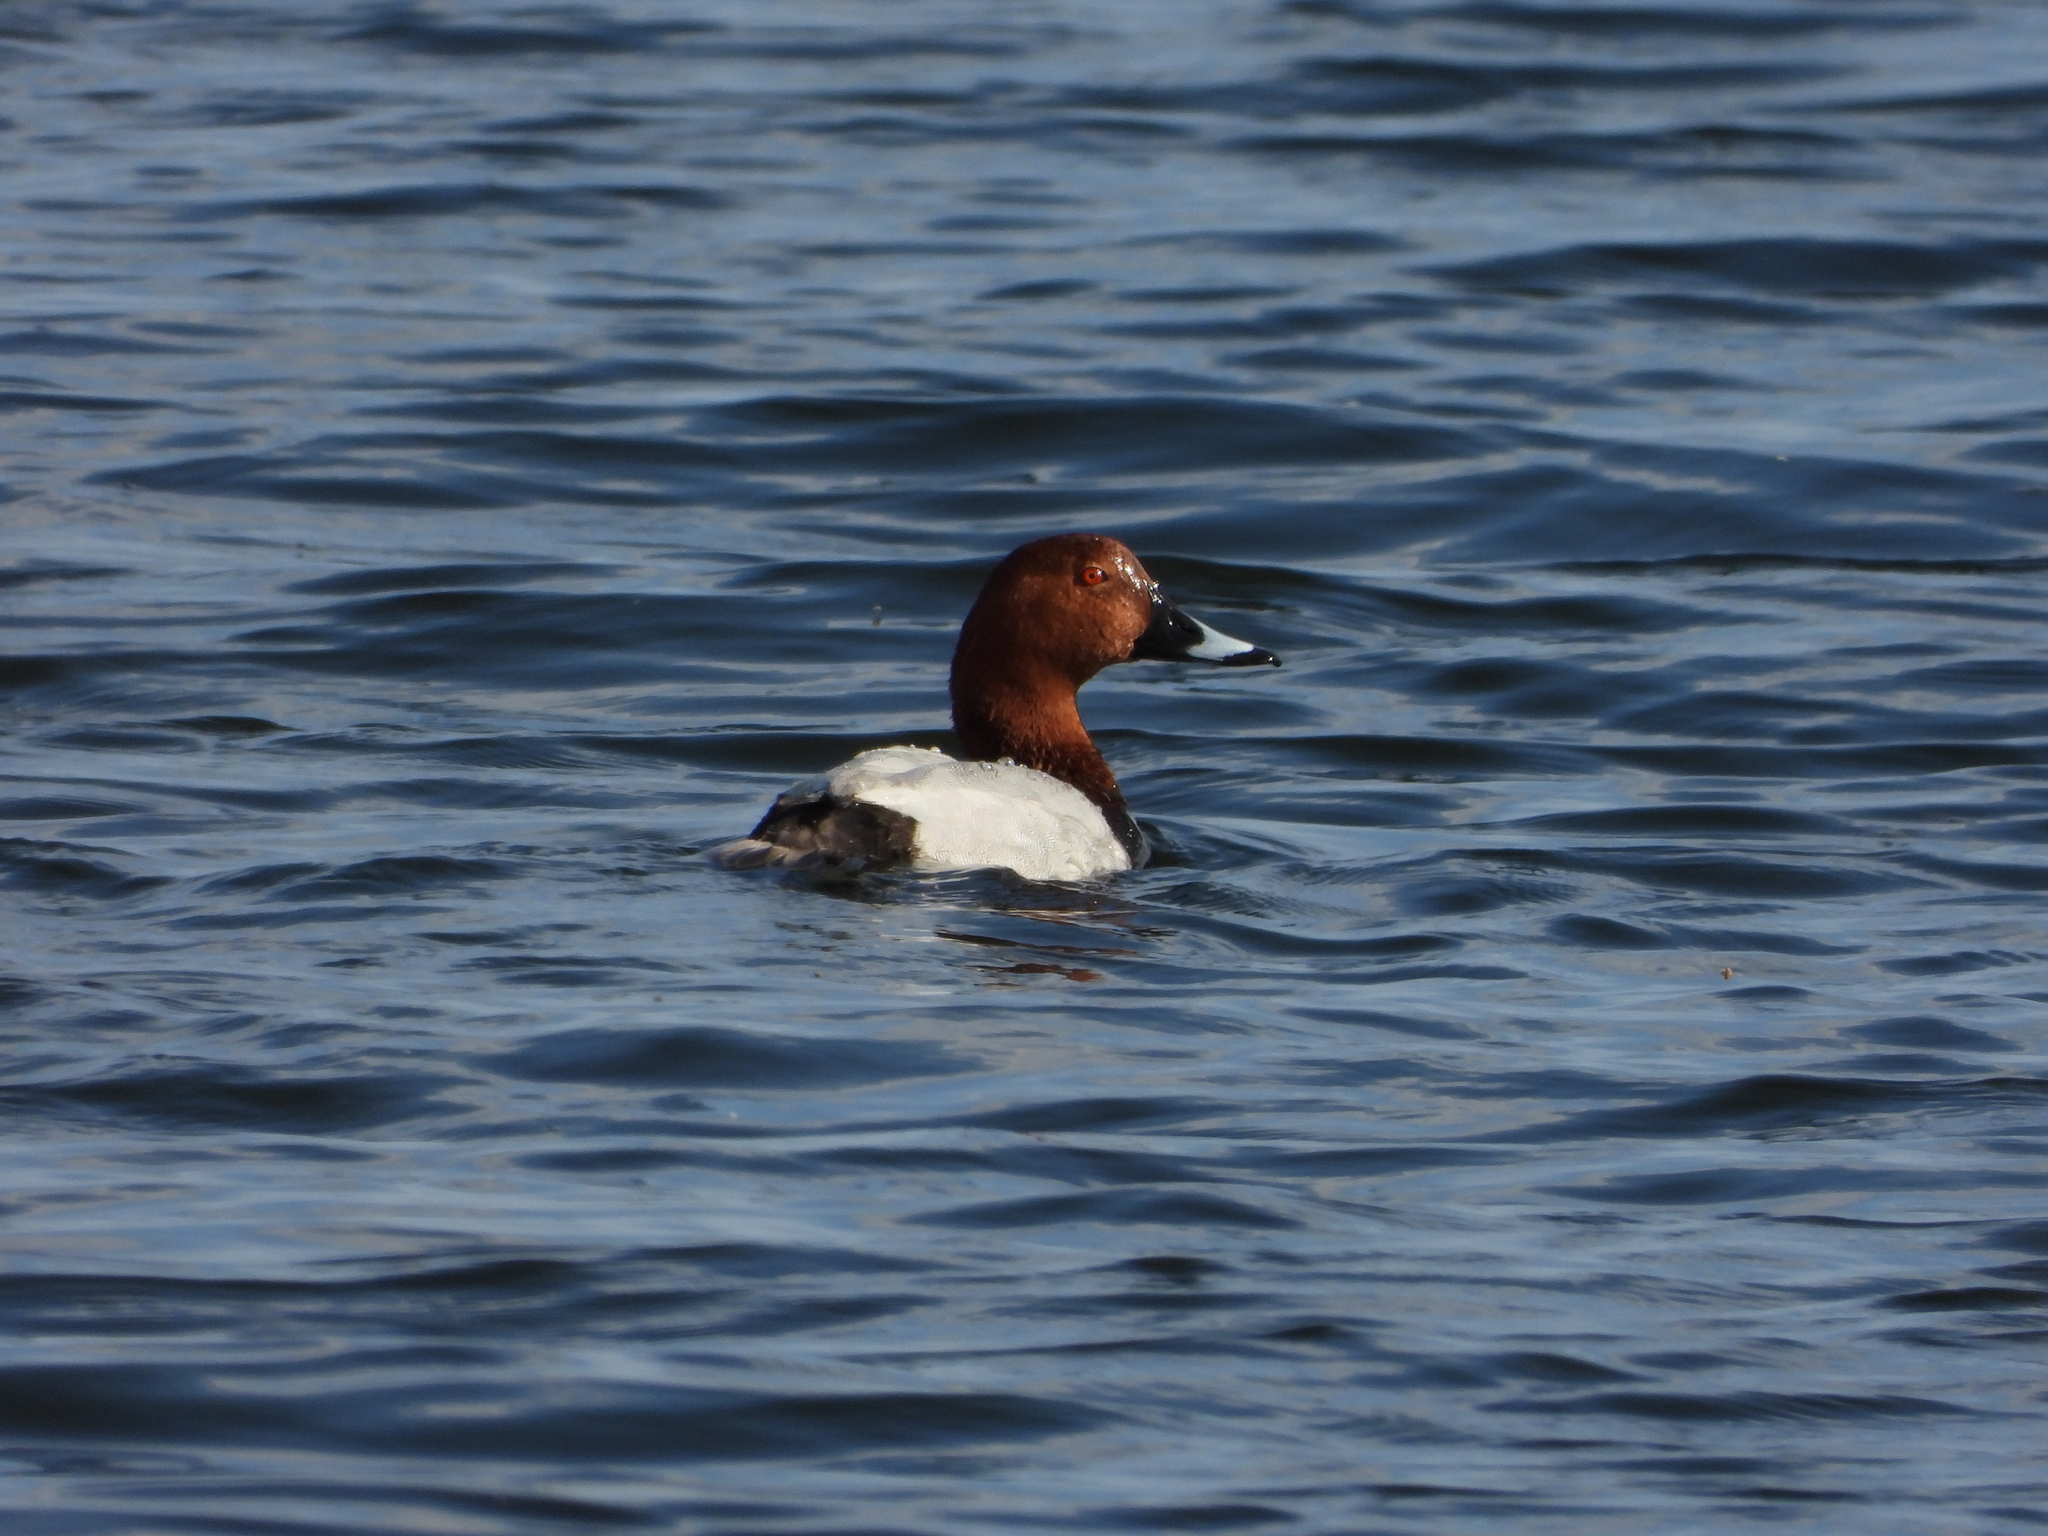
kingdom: Animalia
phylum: Chordata
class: Aves
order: Anseriformes
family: Anatidae
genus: Aythya
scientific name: Aythya ferina
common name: Common pochard
